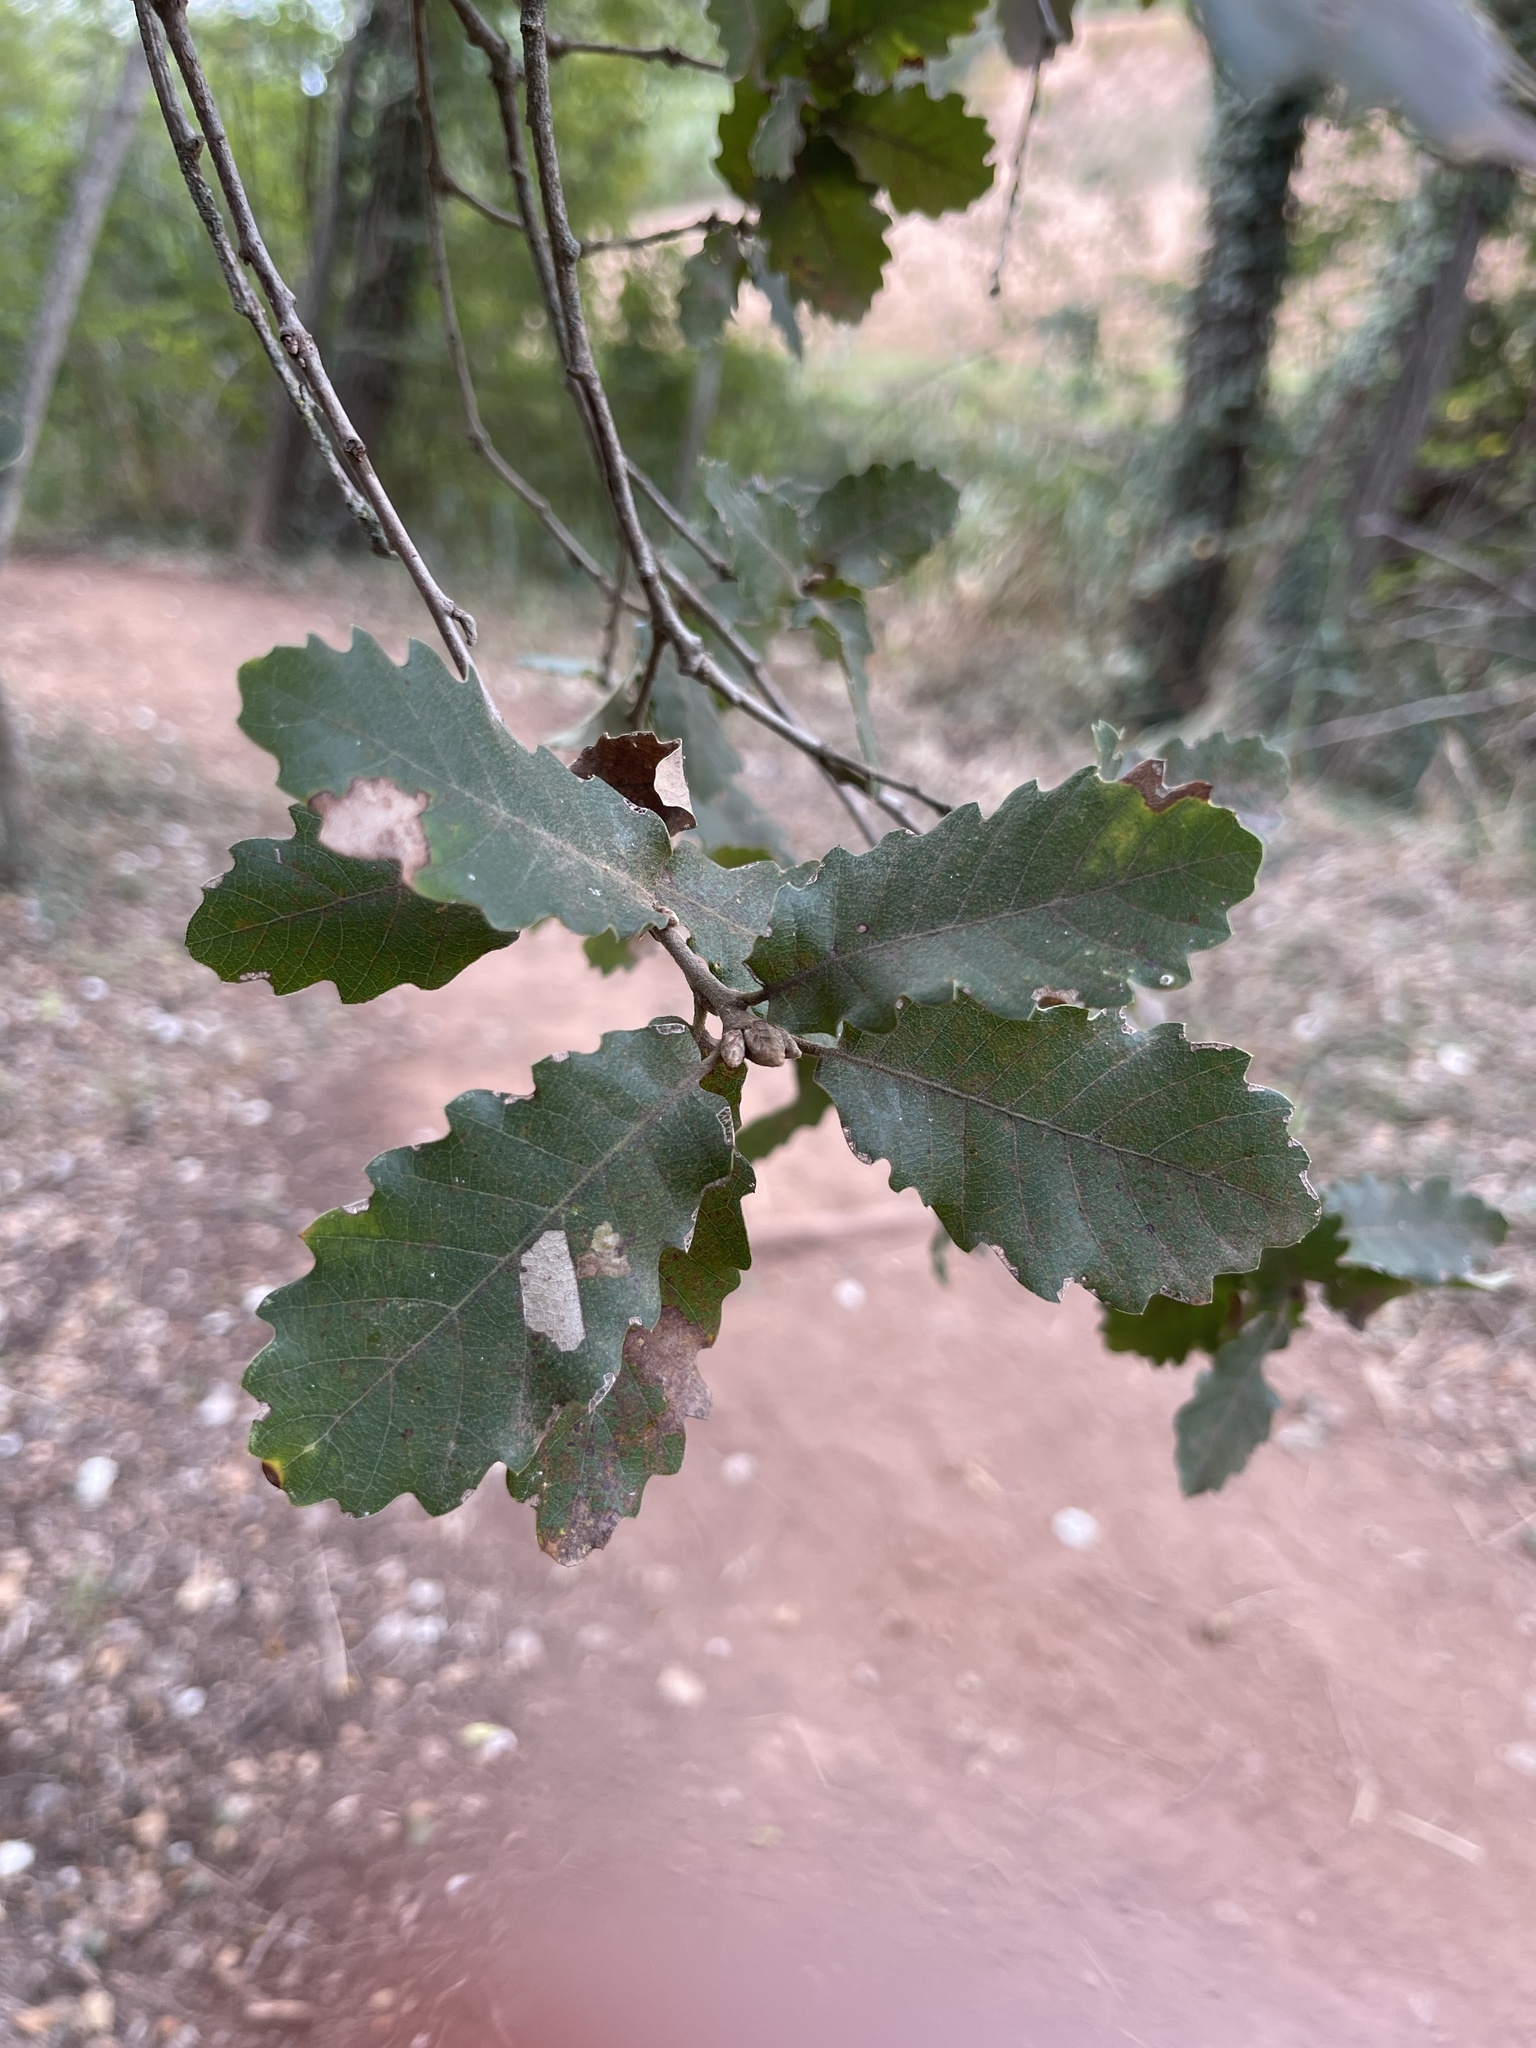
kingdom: Plantae
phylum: Tracheophyta
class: Magnoliopsida
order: Fagales
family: Fagaceae
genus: Quercus
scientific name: Quercus pubescens
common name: Downy oak
